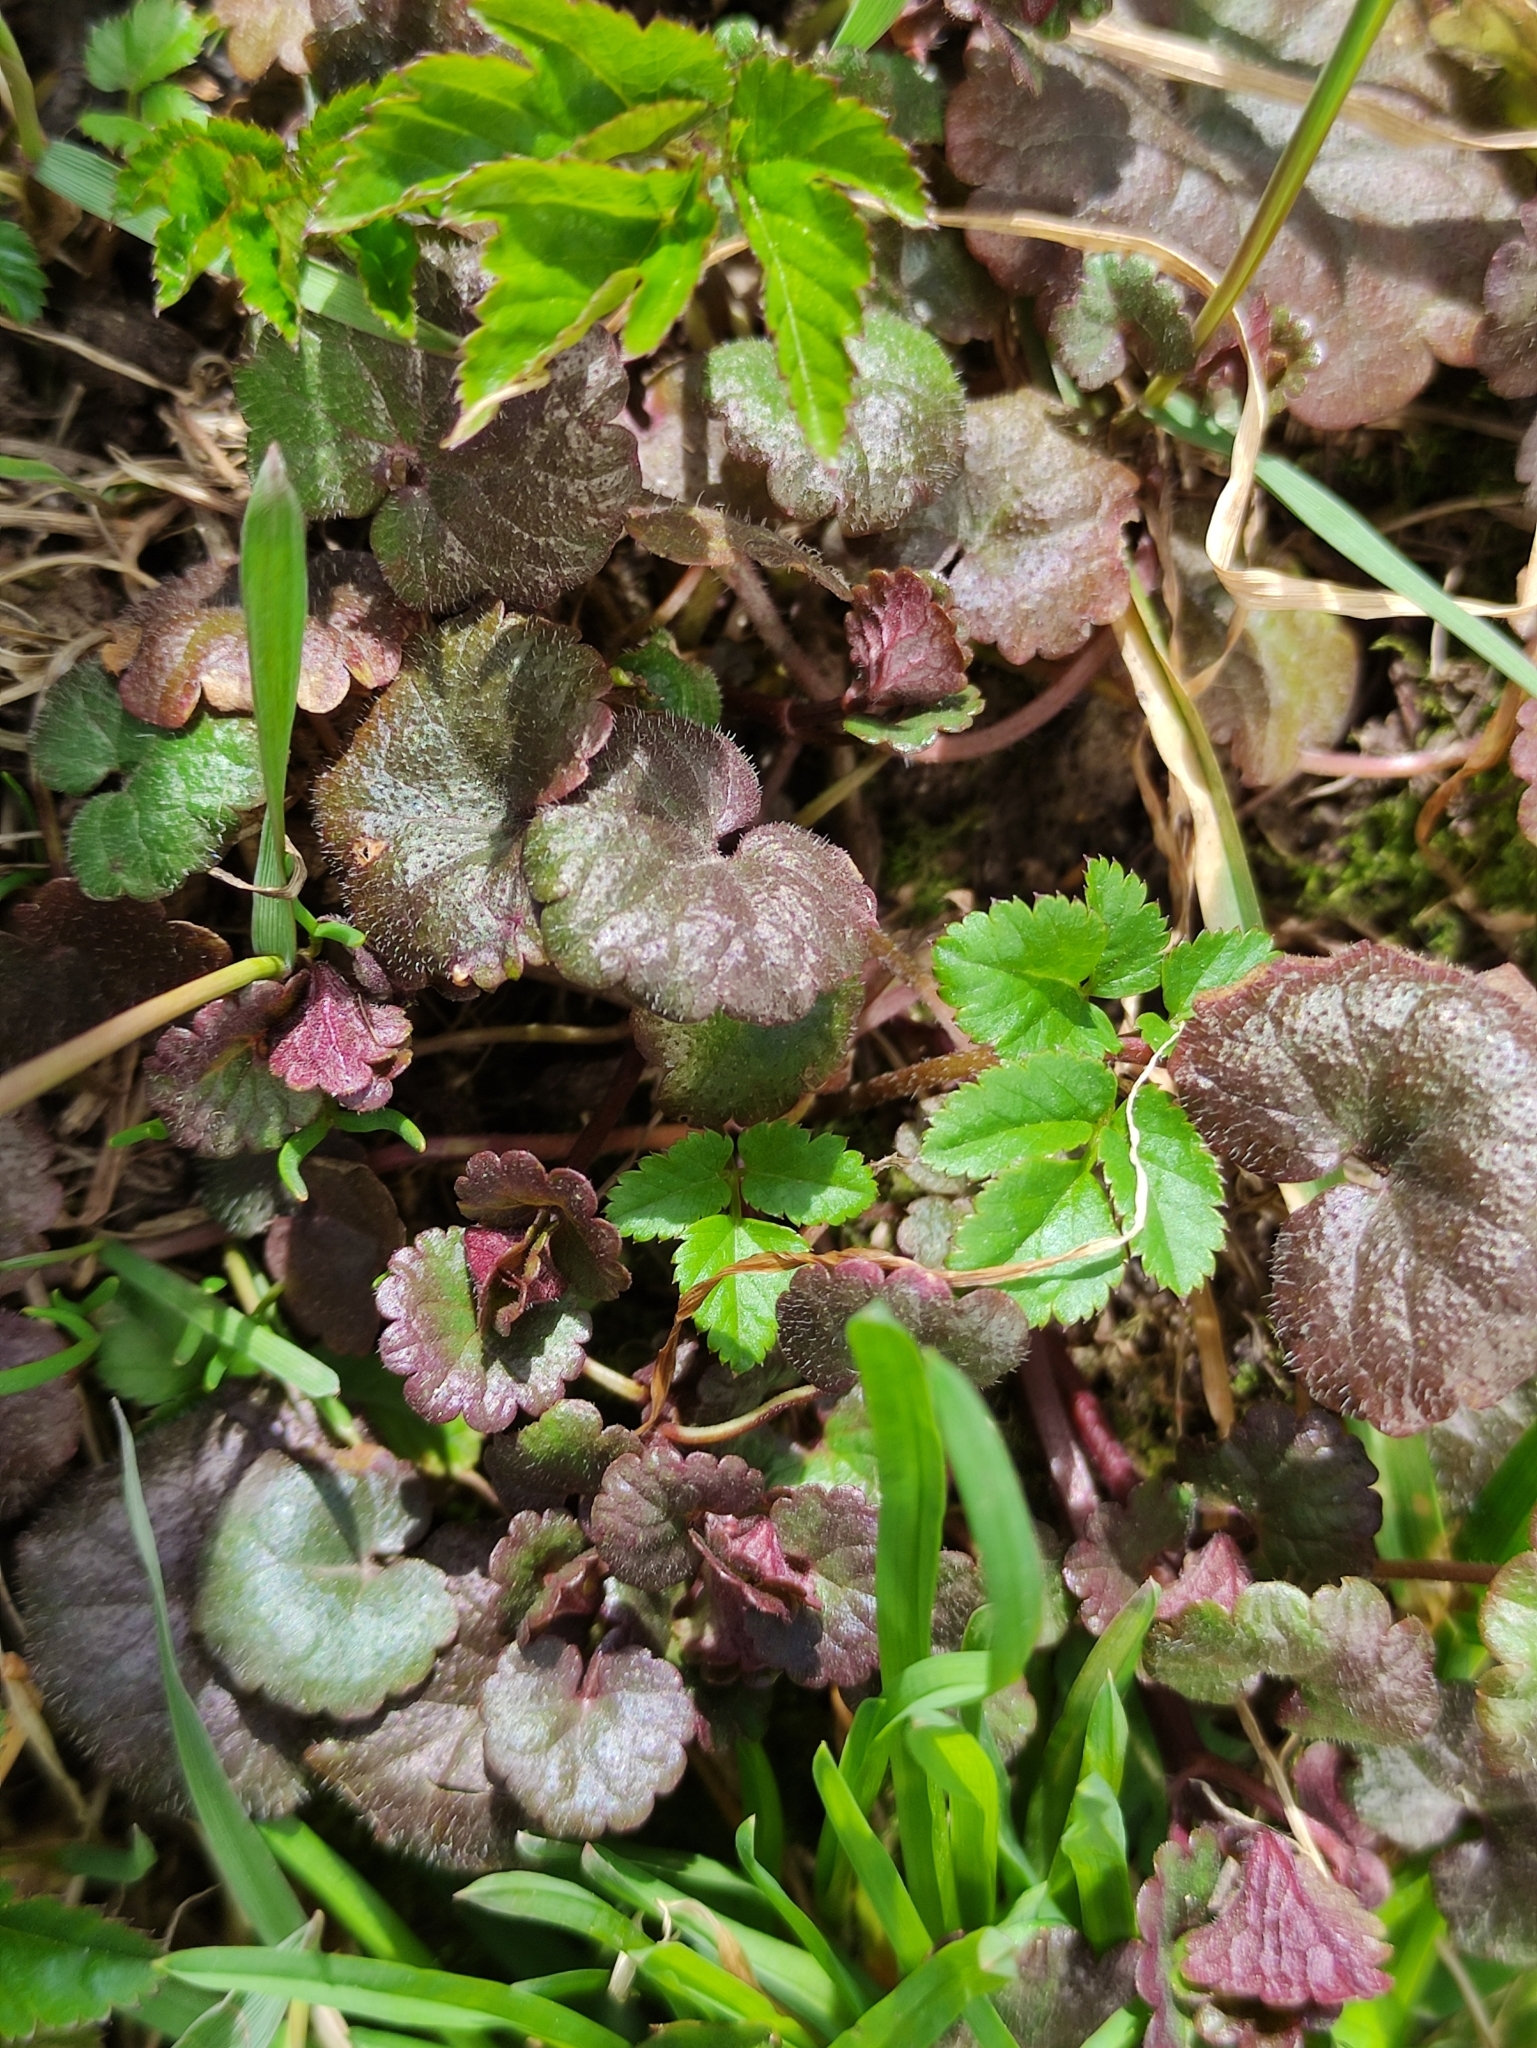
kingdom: Plantae
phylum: Tracheophyta
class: Magnoliopsida
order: Lamiales
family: Lamiaceae
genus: Glechoma
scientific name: Glechoma hederacea
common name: Ground ivy
